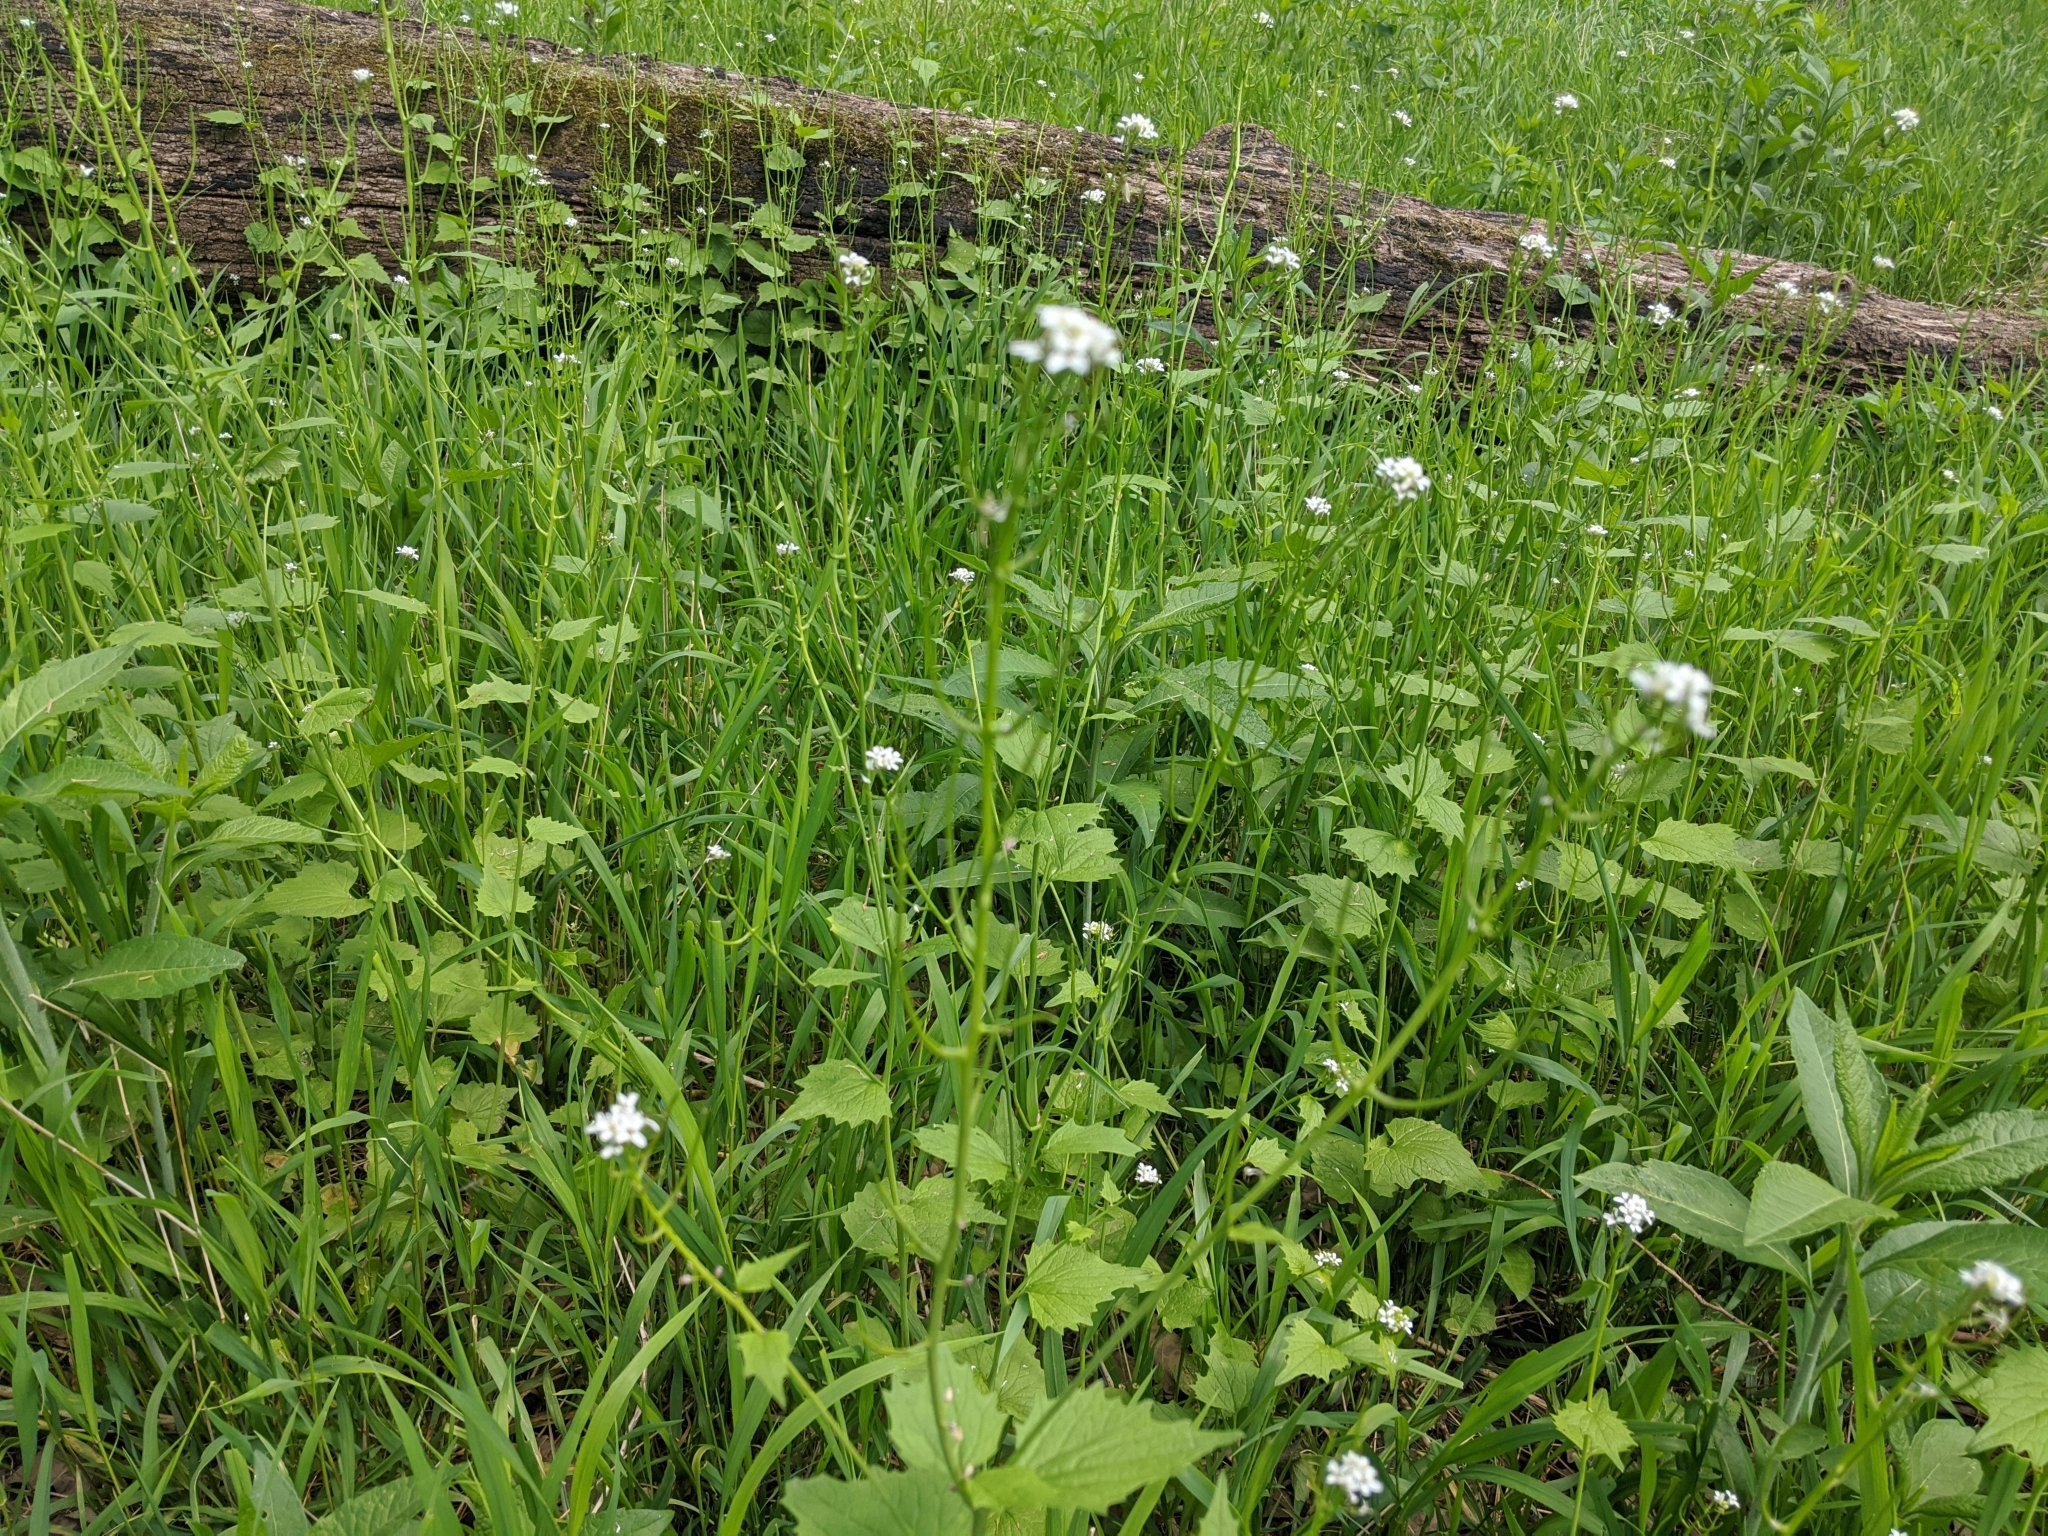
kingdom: Plantae
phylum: Tracheophyta
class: Magnoliopsida
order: Brassicales
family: Brassicaceae
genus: Alliaria
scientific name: Alliaria petiolata
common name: Garlic mustard
